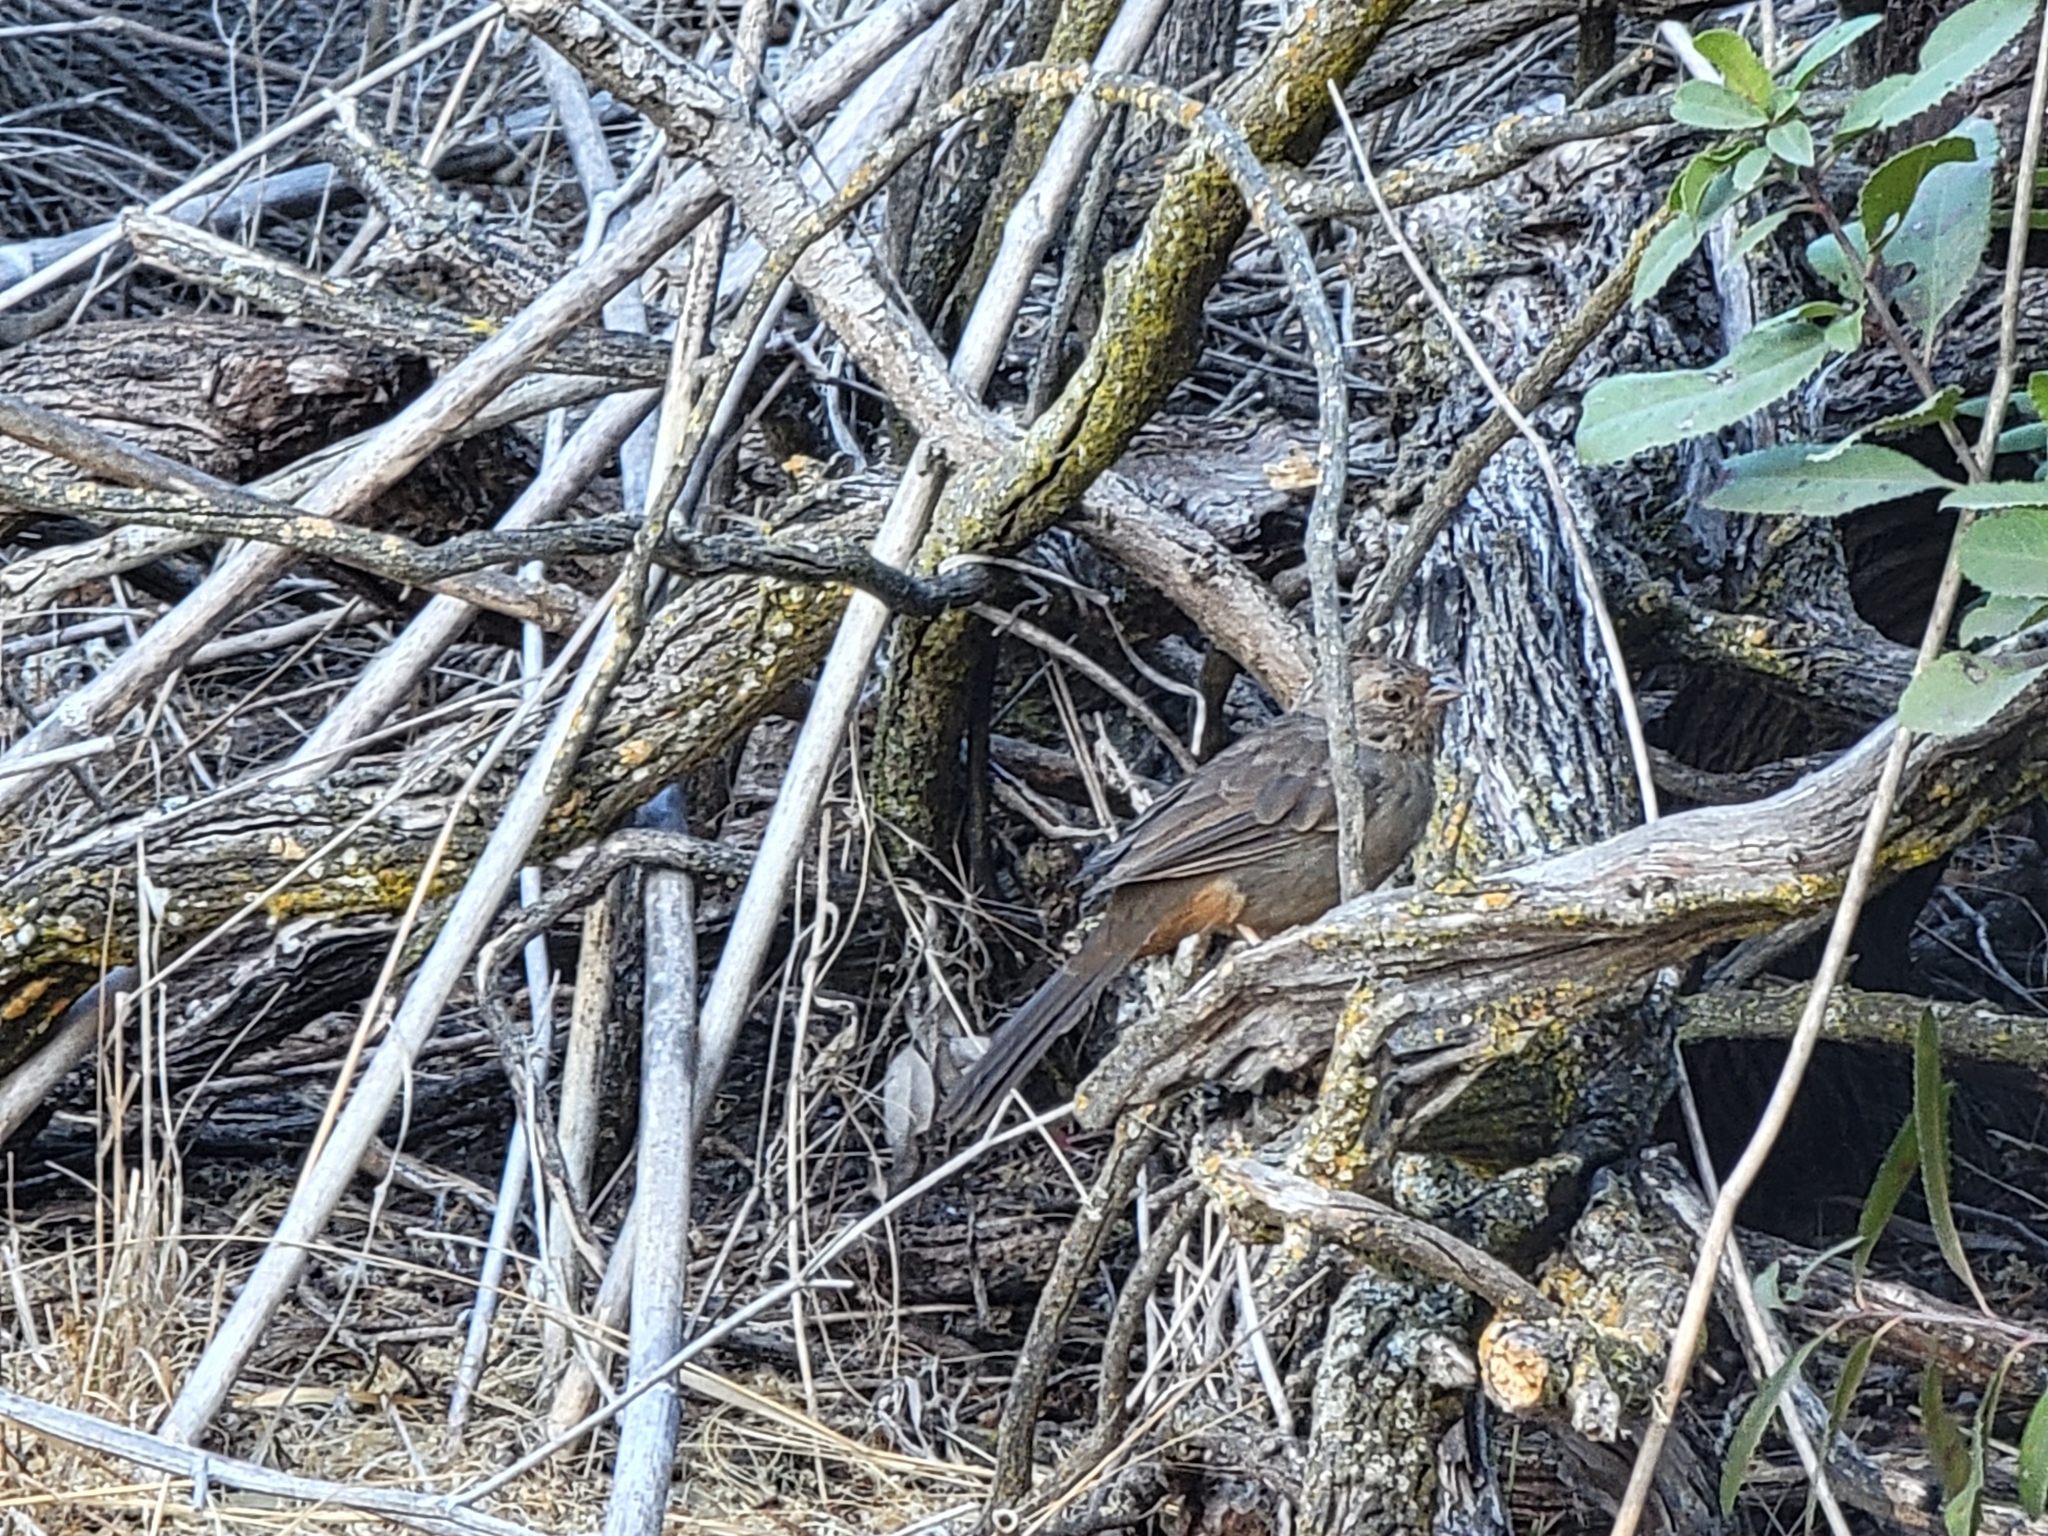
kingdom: Animalia
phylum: Chordata
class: Aves
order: Passeriformes
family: Passerellidae
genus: Melozone
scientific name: Melozone crissalis
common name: California towhee
